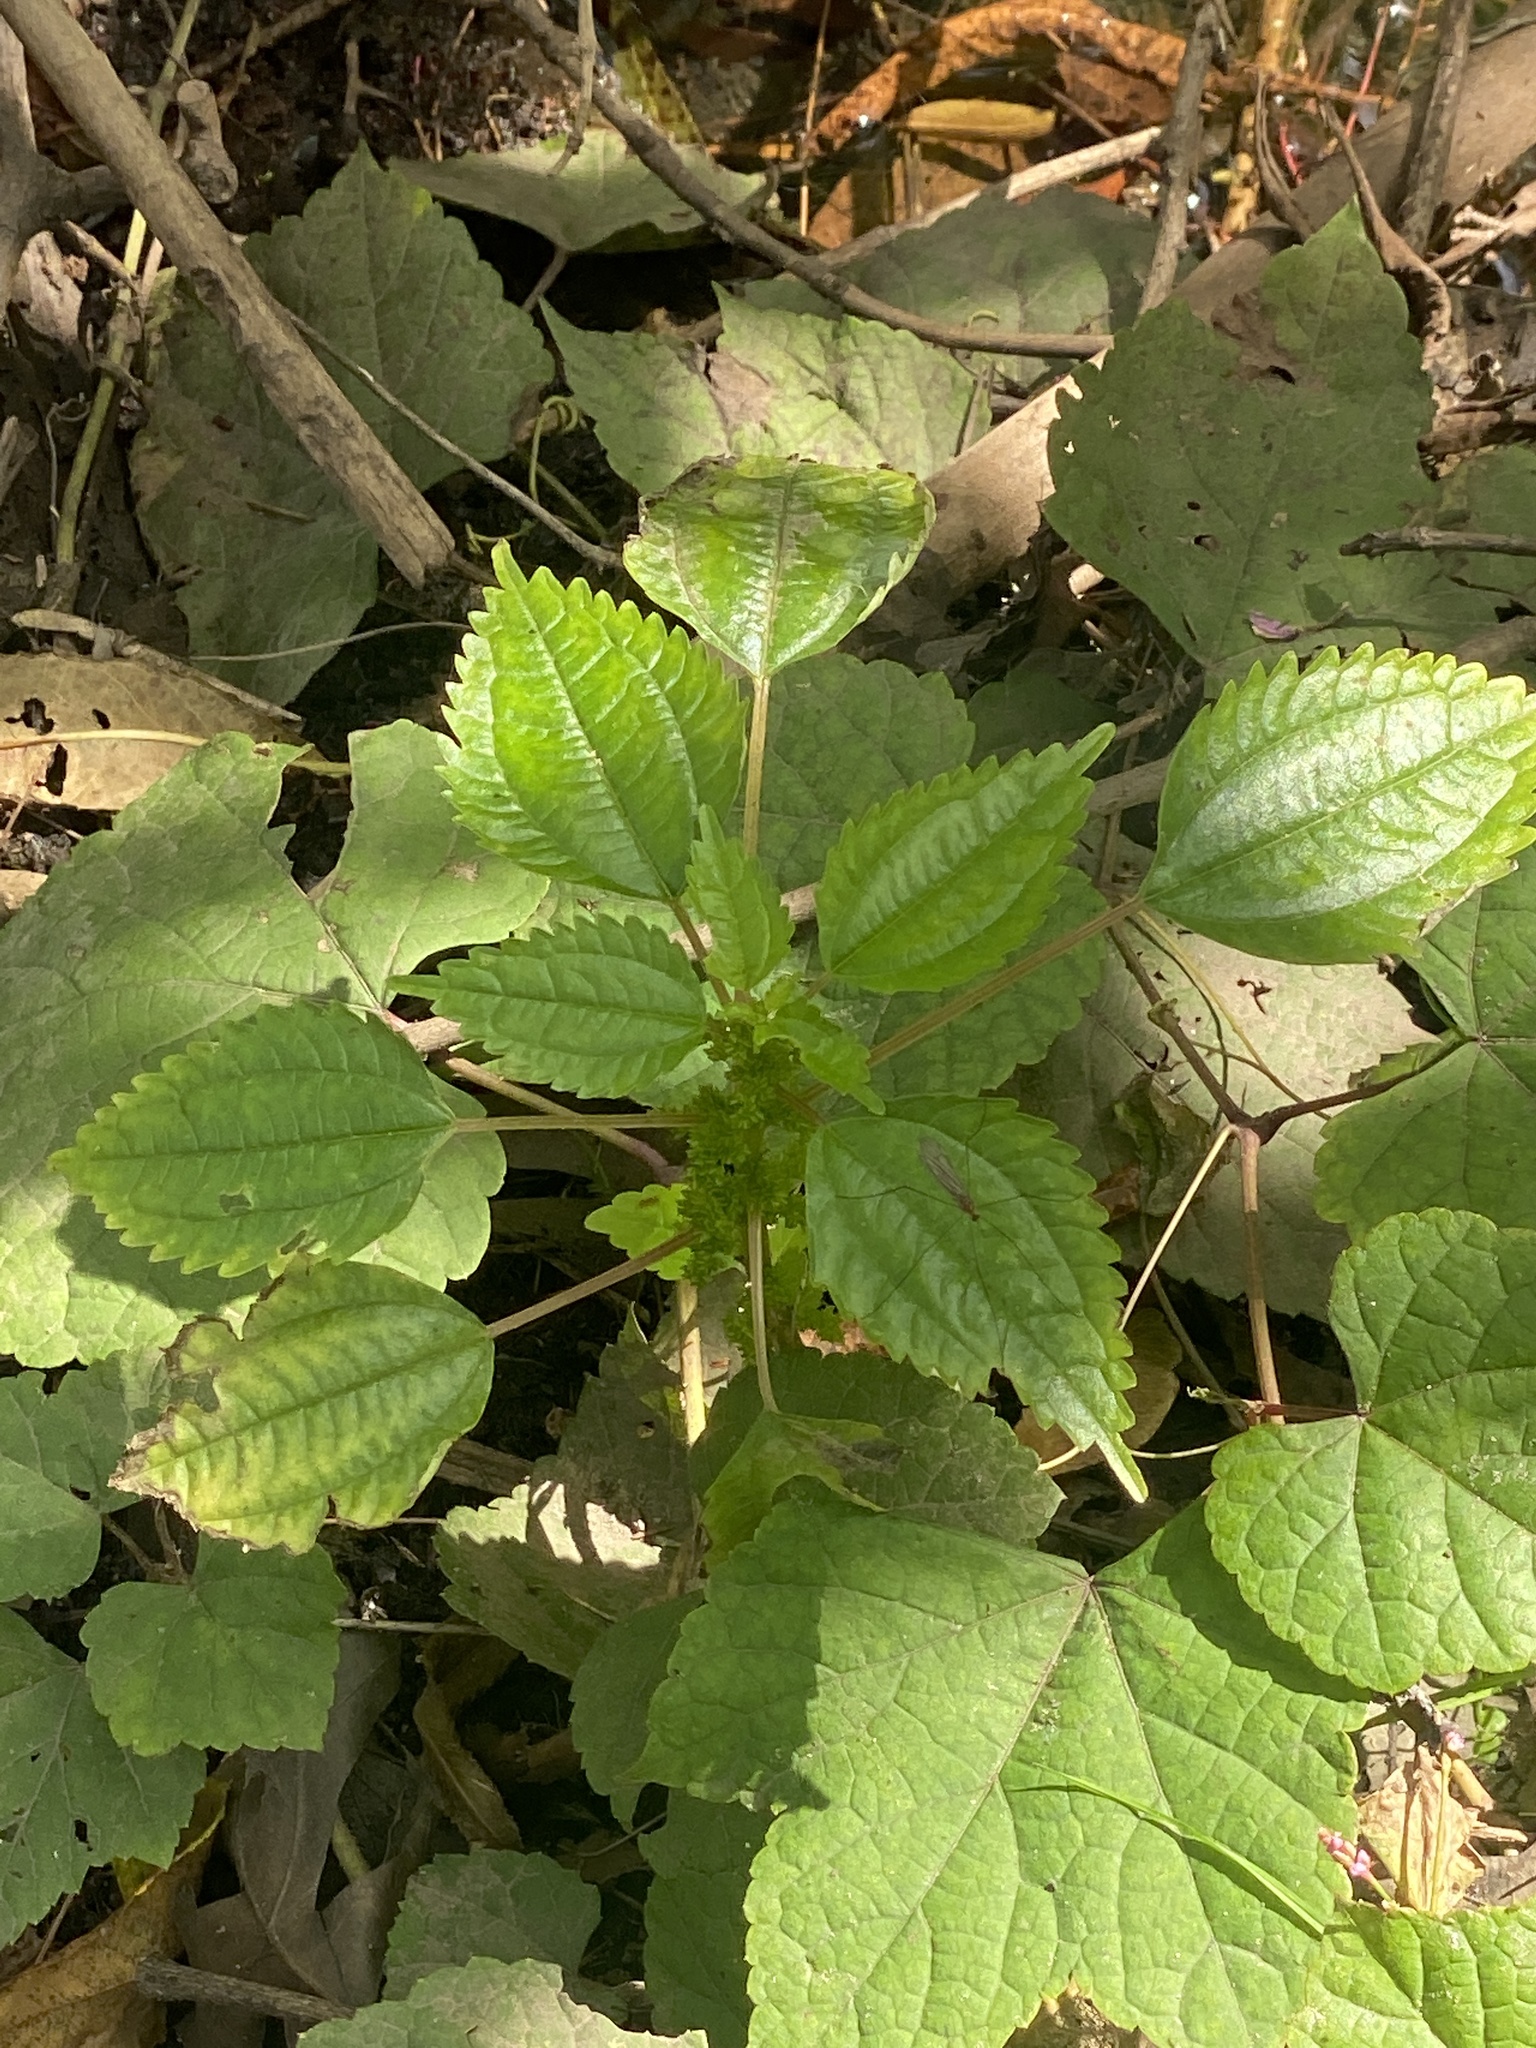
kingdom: Plantae
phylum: Tracheophyta
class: Magnoliopsida
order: Rosales
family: Urticaceae
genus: Pilea
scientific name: Pilea pumila
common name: Clearweed
